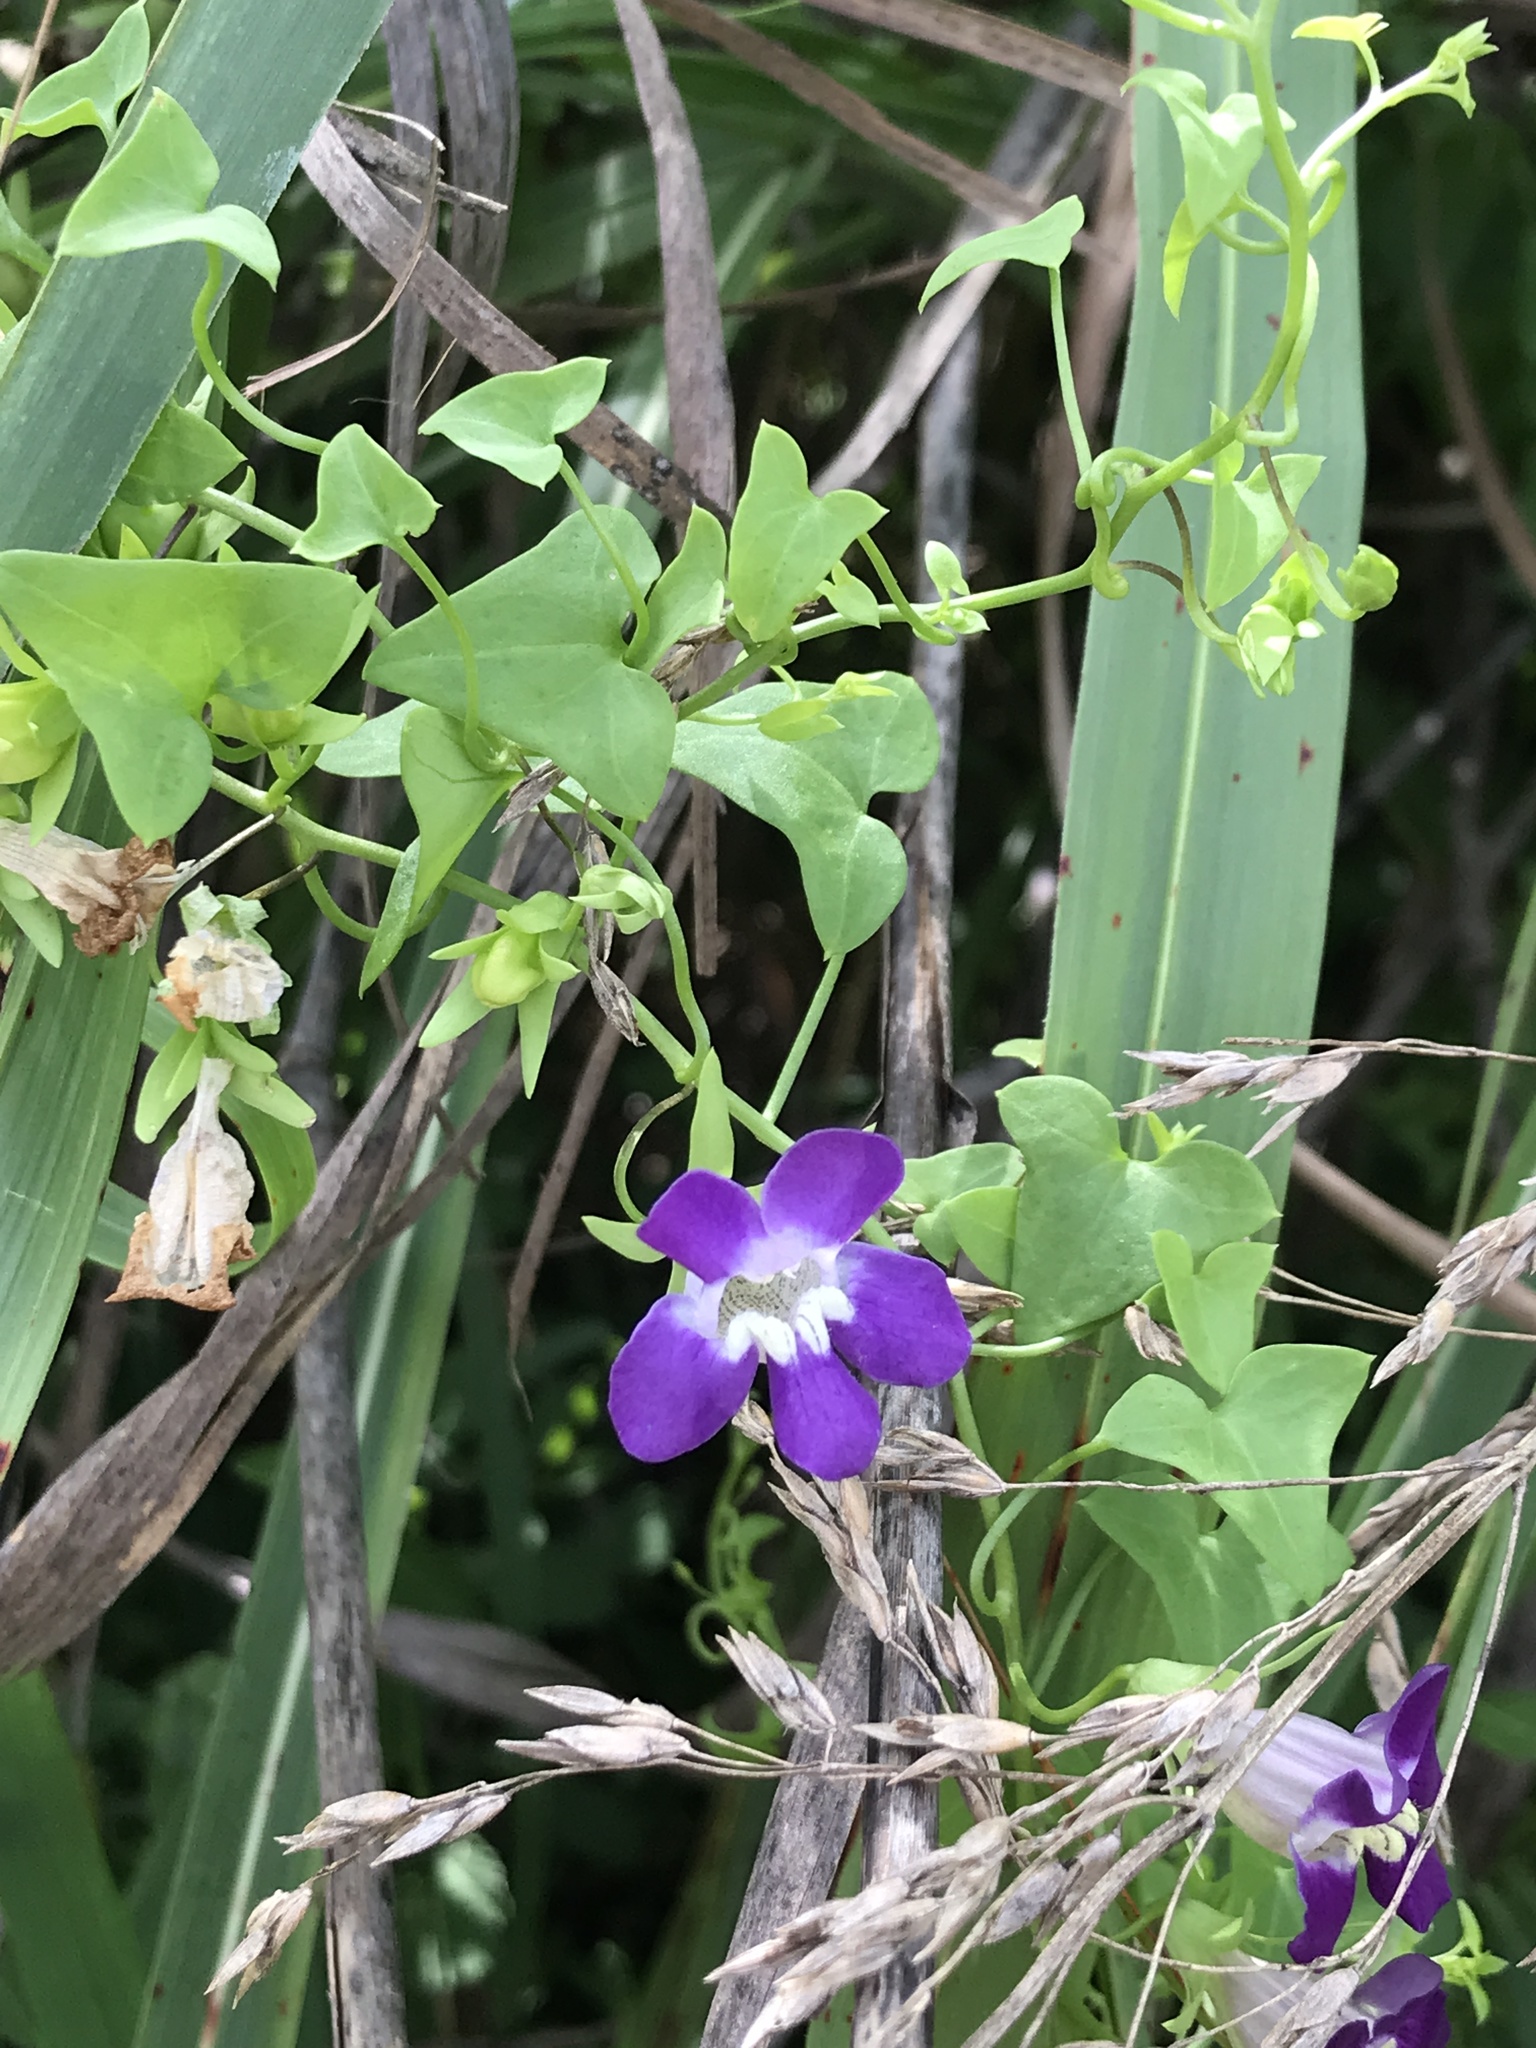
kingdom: Plantae
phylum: Tracheophyta
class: Magnoliopsida
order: Lamiales
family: Plantaginaceae
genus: Maurandella
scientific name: Maurandella antirrhiniflora
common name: Violet twining-snapdragon
